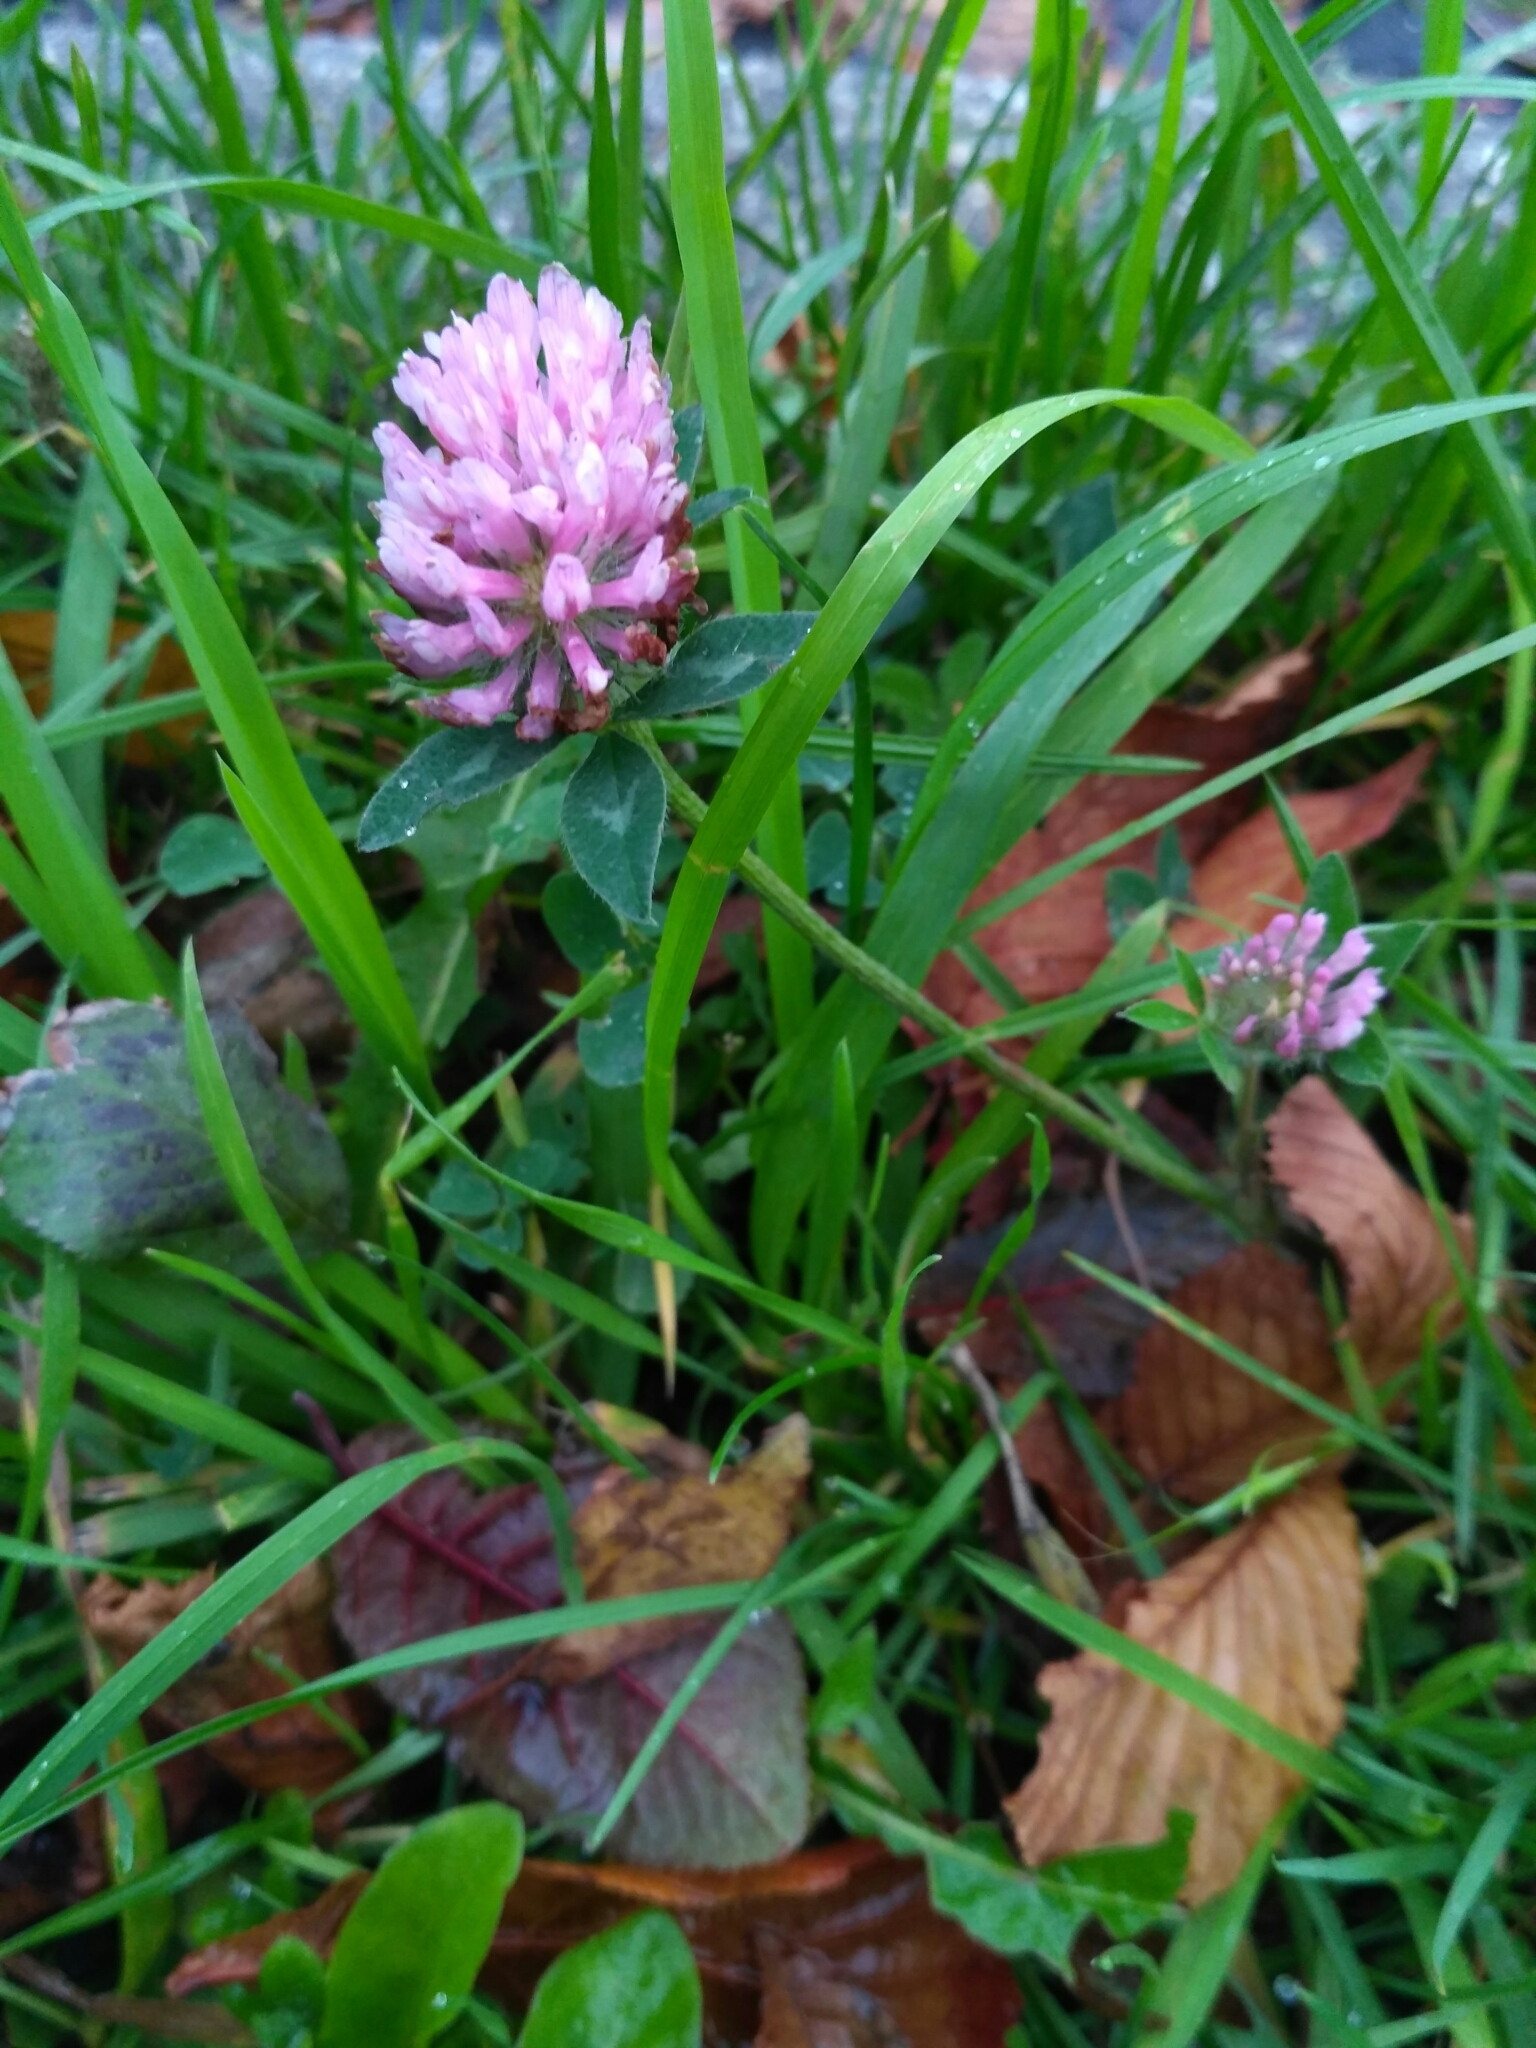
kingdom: Plantae
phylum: Tracheophyta
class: Magnoliopsida
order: Fabales
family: Fabaceae
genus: Trifolium
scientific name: Trifolium pratense
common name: Red clover
